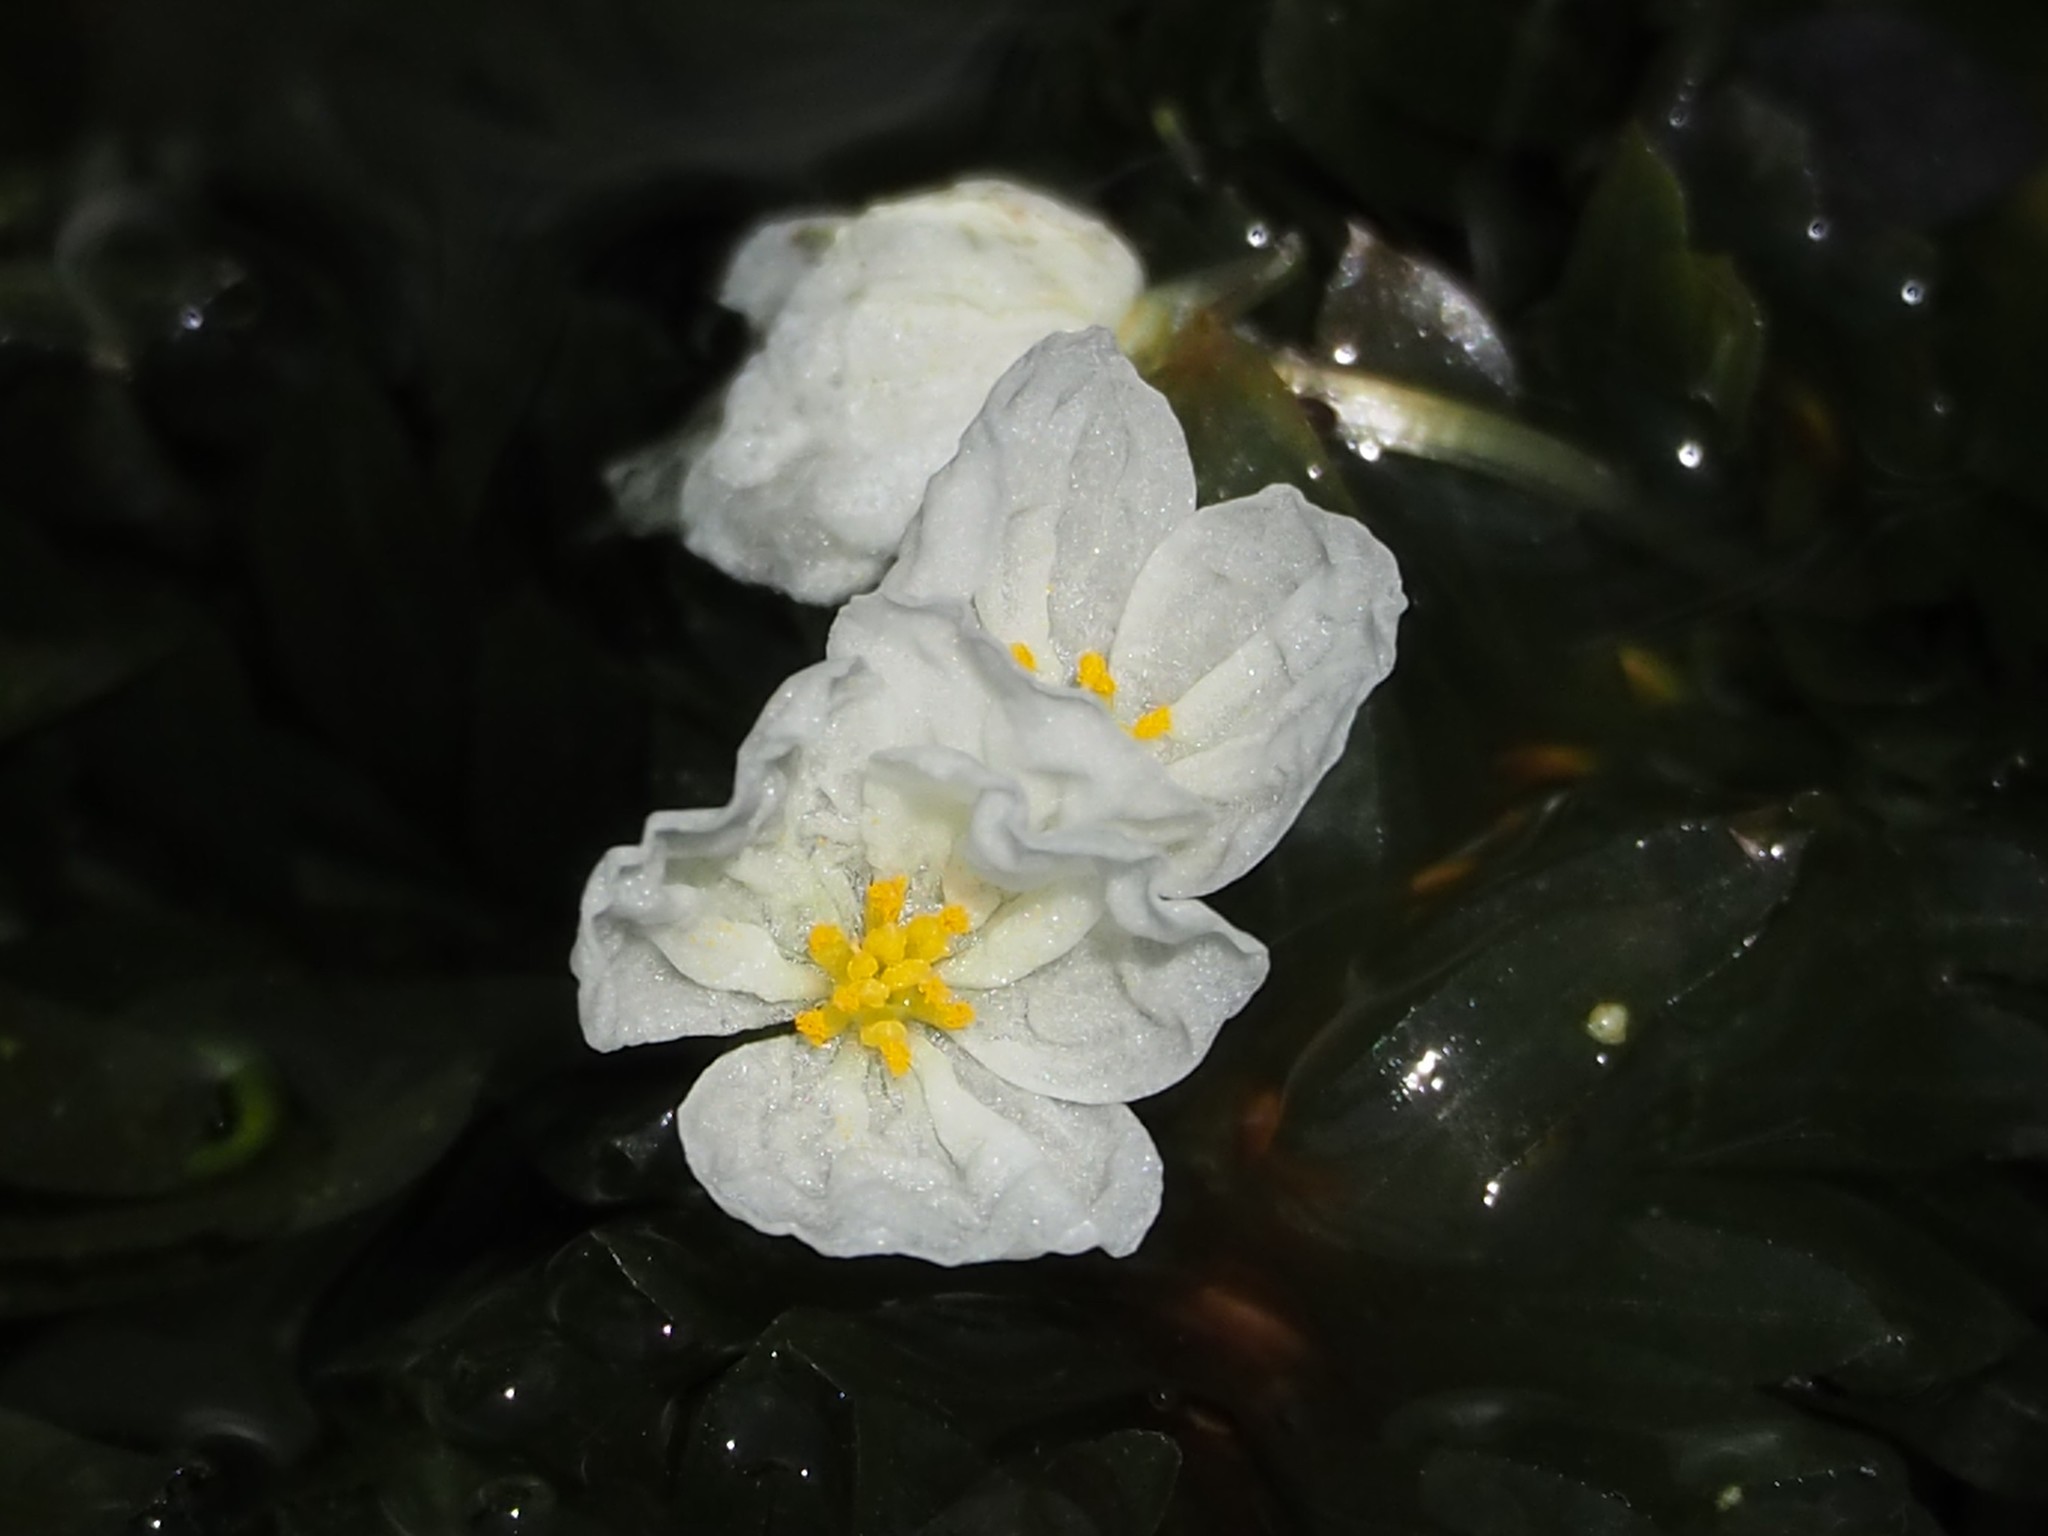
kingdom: Plantae
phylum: Tracheophyta
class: Liliopsida
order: Alismatales
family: Hydrocharitaceae
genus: Elodea
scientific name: Elodea densa
